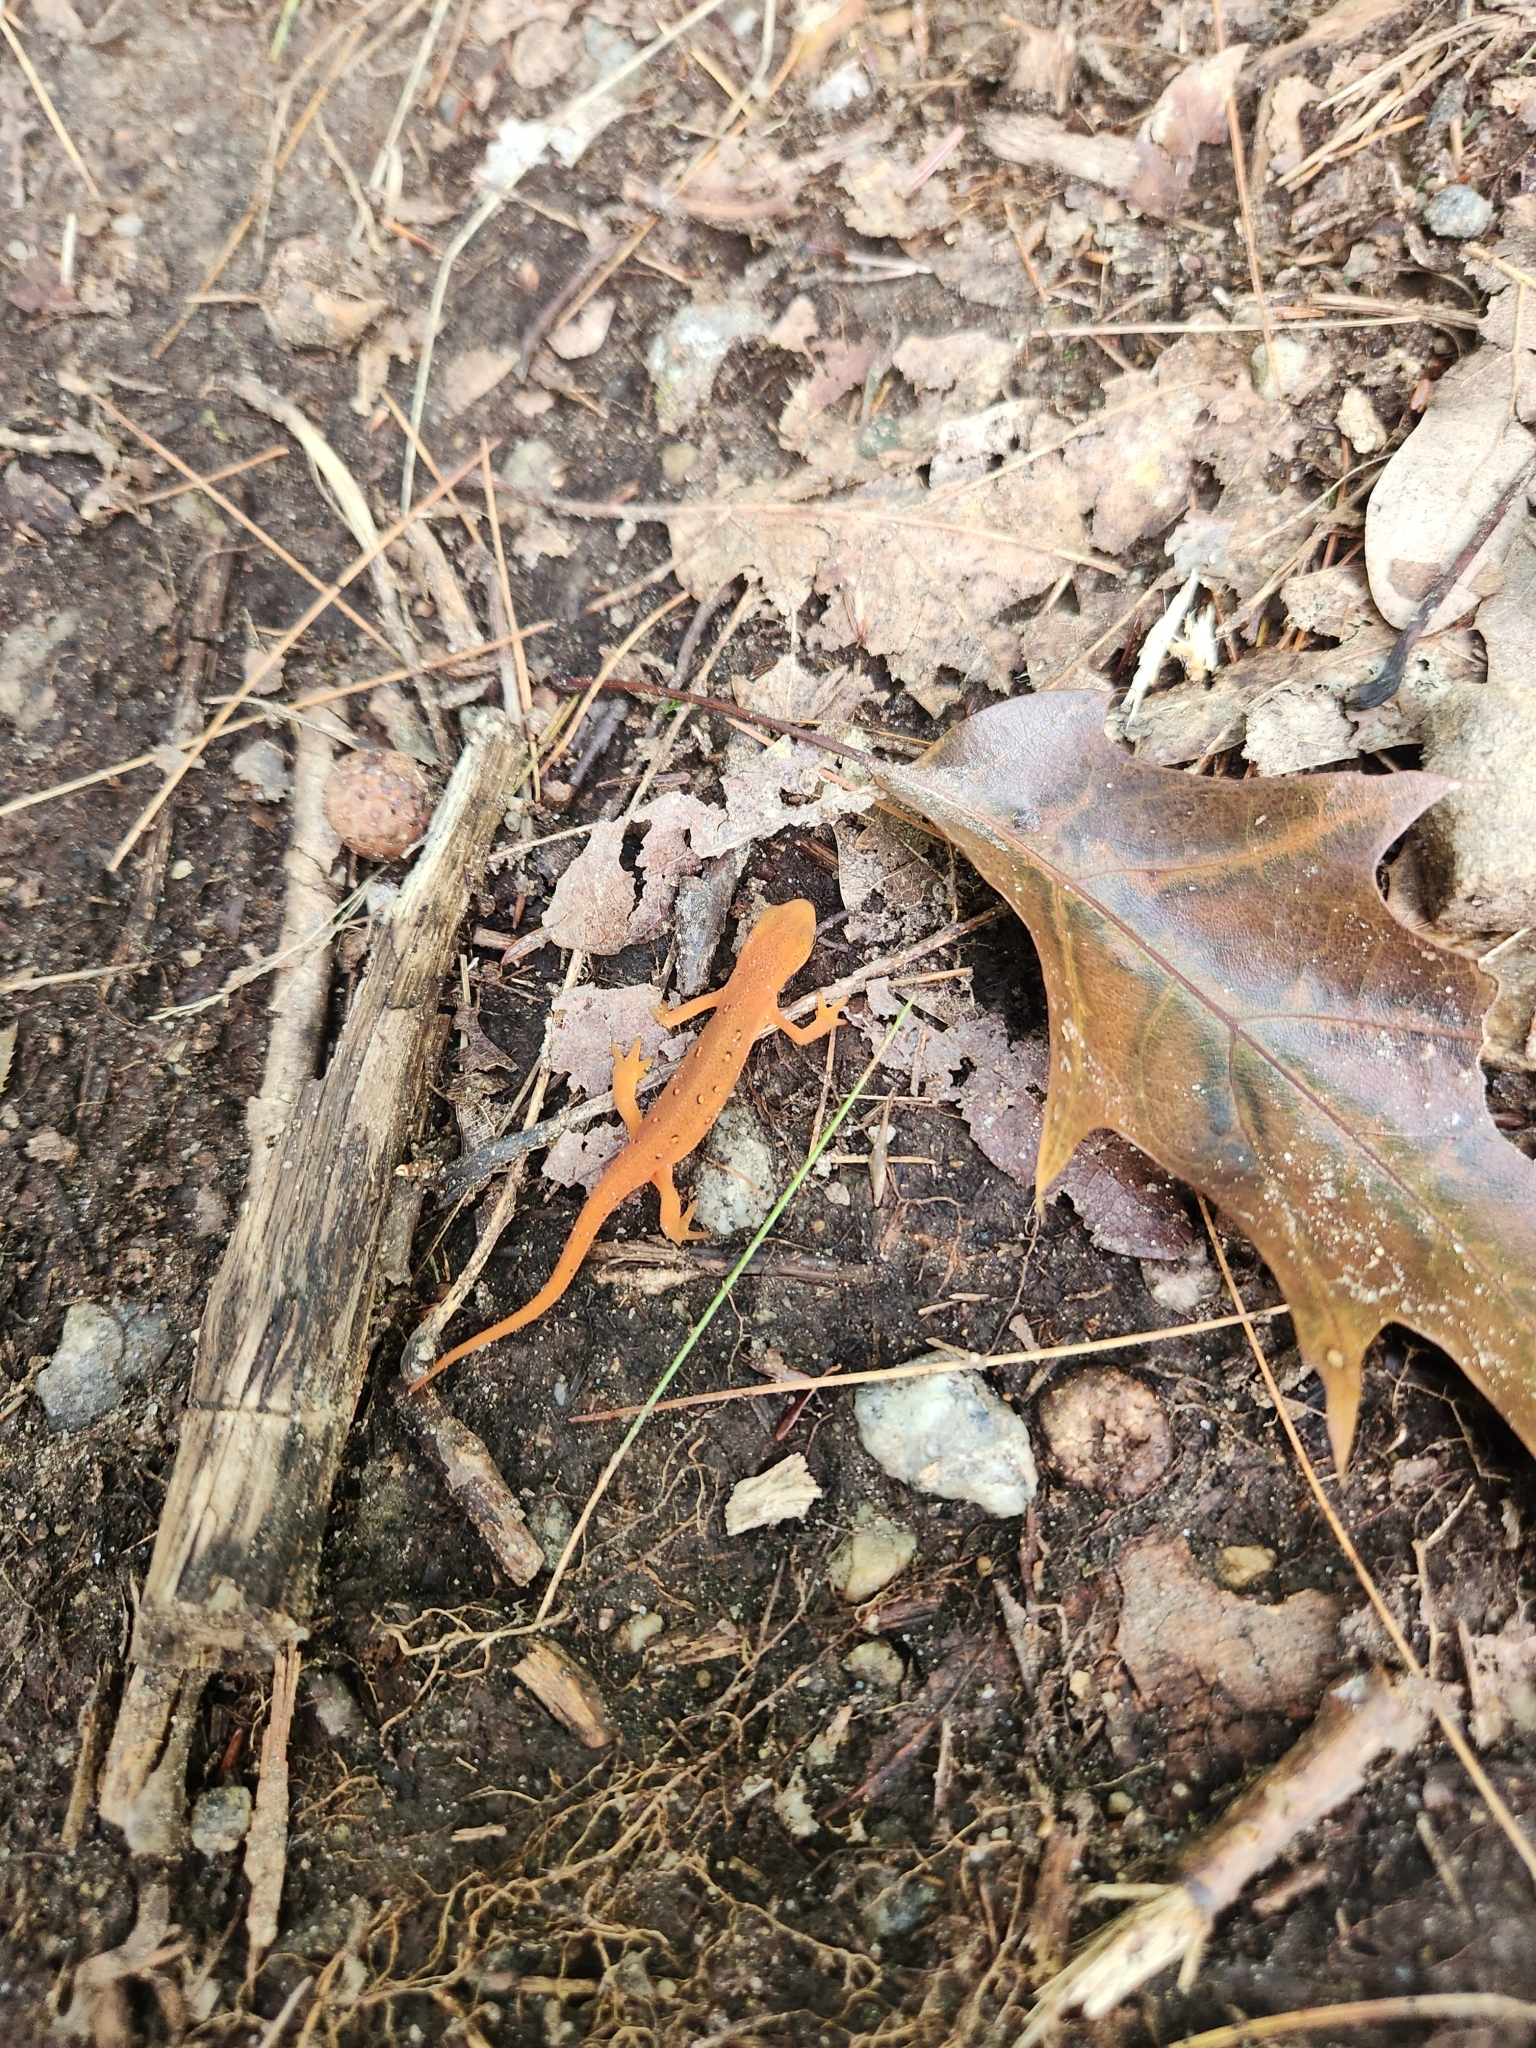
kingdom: Animalia
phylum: Chordata
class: Amphibia
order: Caudata
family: Salamandridae
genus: Notophthalmus
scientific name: Notophthalmus viridescens
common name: Eastern newt
